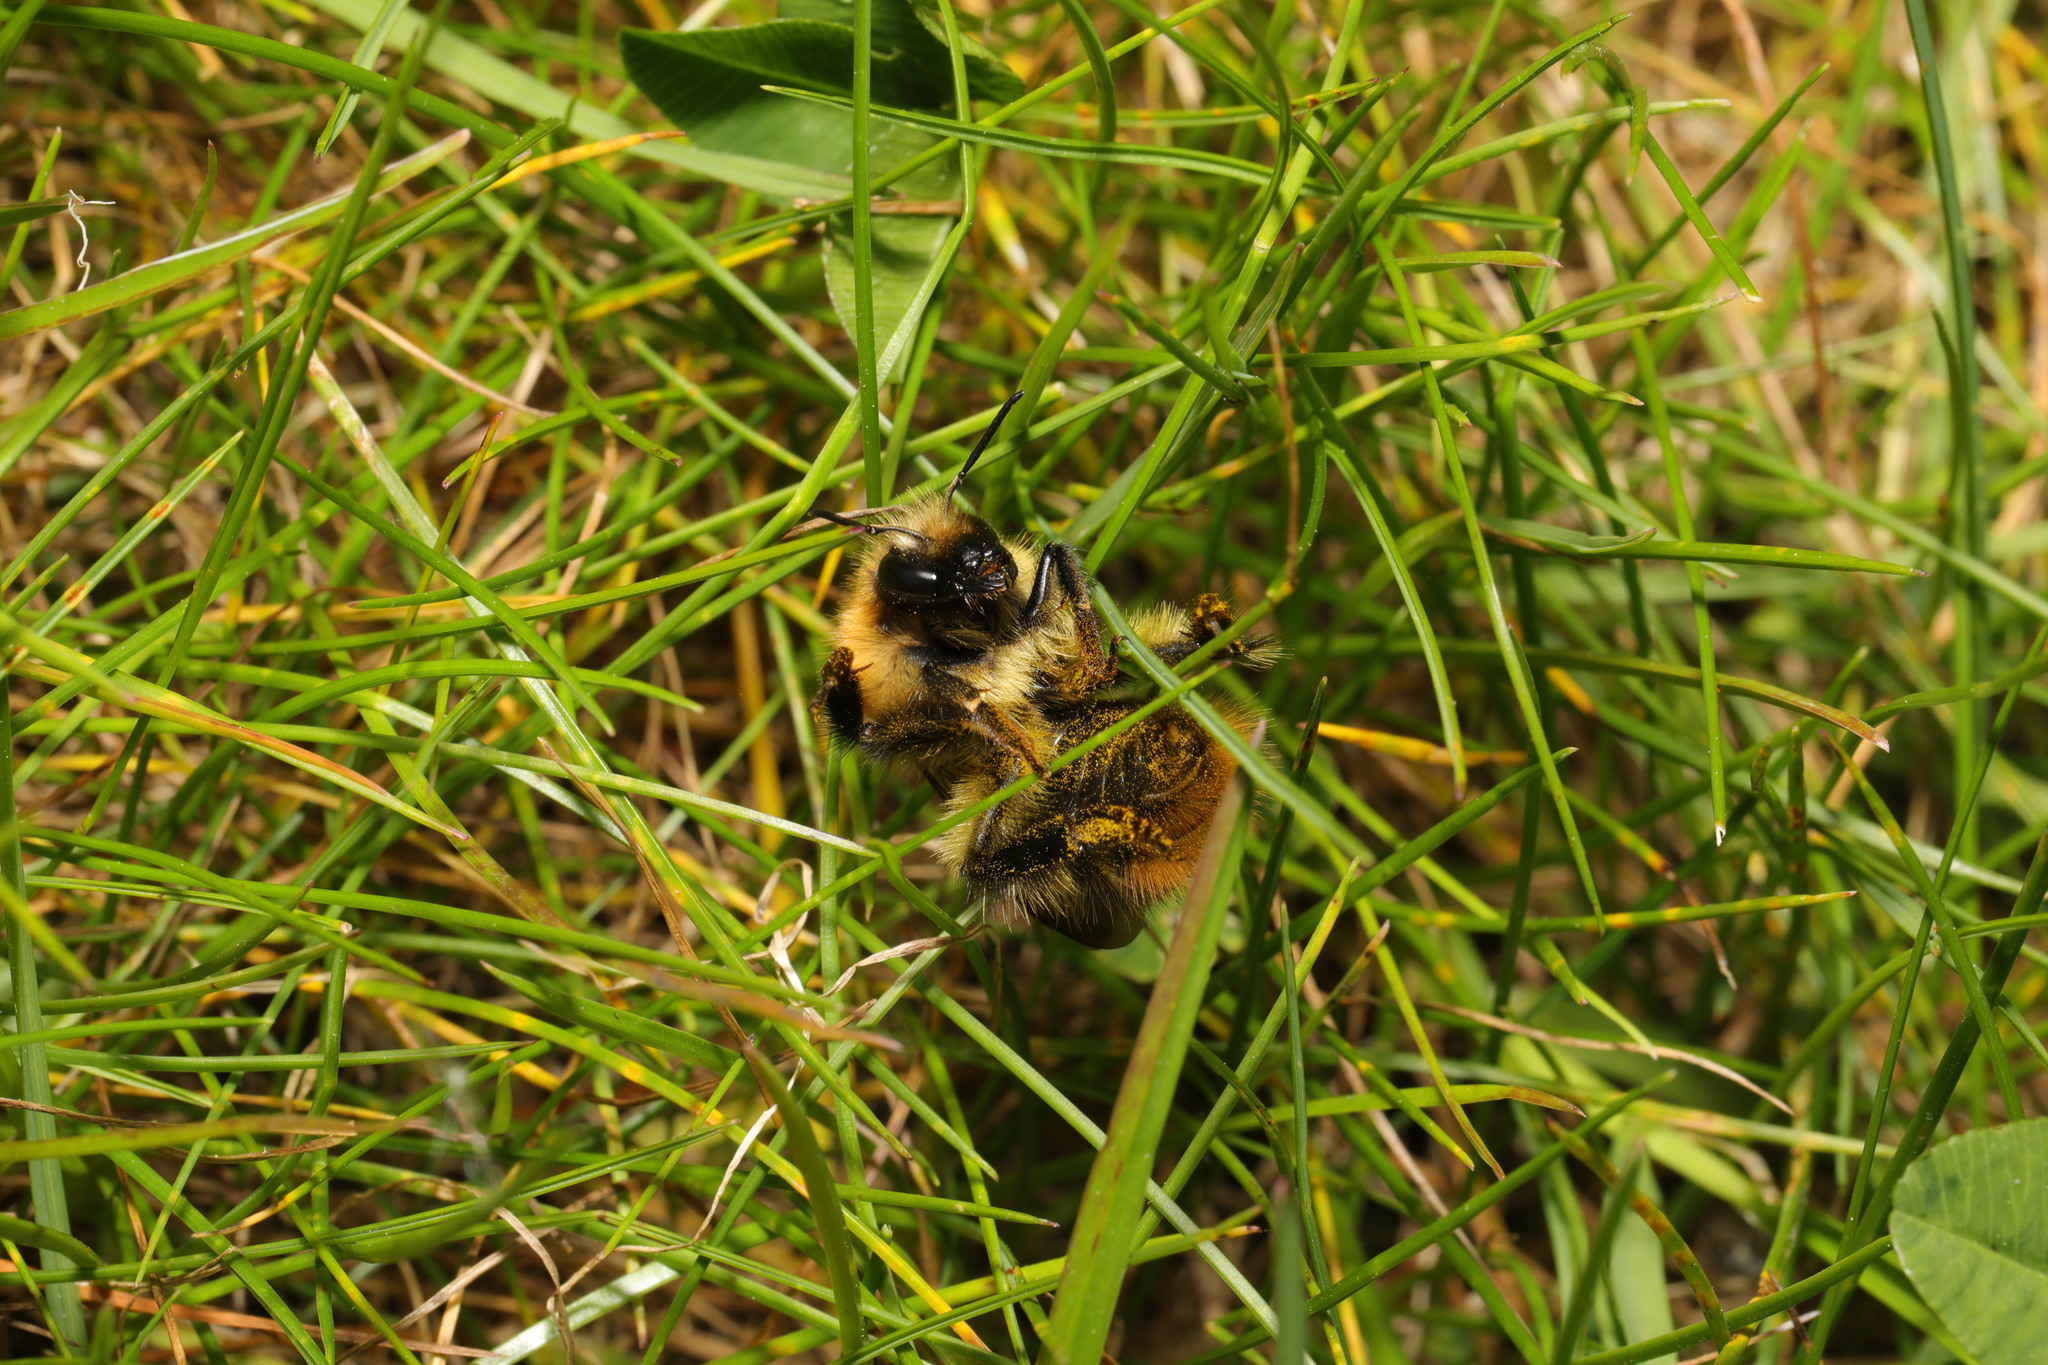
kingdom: Animalia
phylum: Arthropoda
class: Insecta
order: Hymenoptera
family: Apidae
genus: Bombus
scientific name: Bombus pascuorum
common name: Common carder bee
